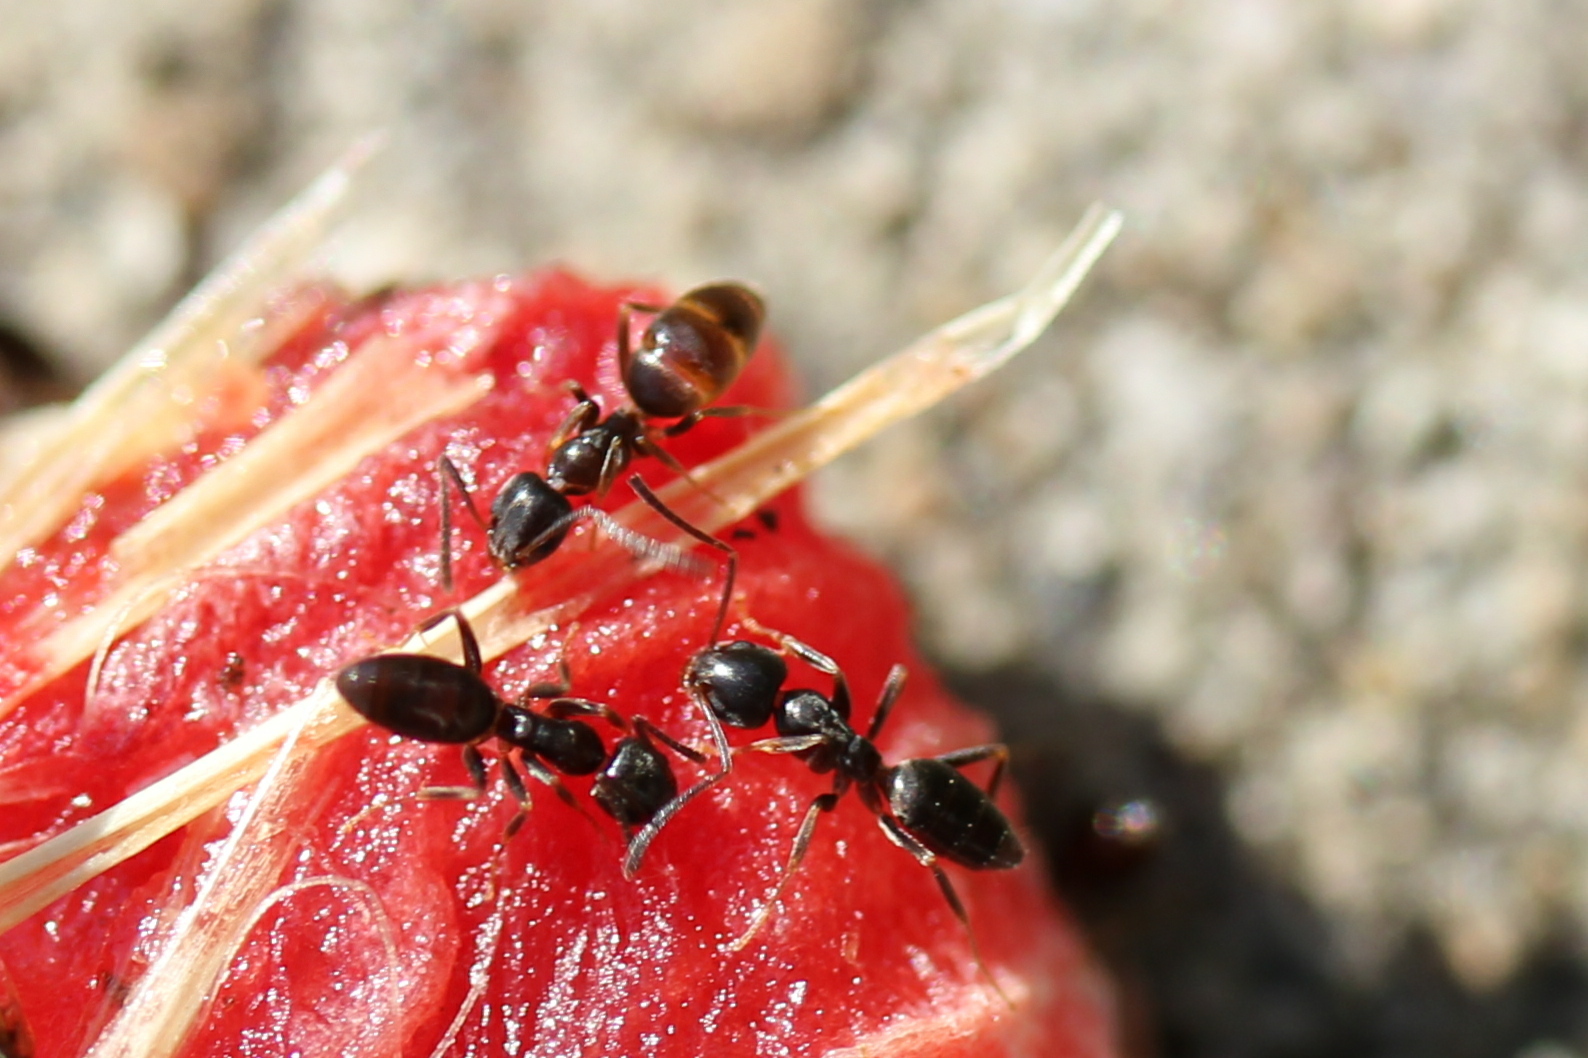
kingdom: Animalia
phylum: Arthropoda
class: Insecta
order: Hymenoptera
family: Formicidae
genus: Tapinoma
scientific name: Tapinoma sessile
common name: Odorous house ant
